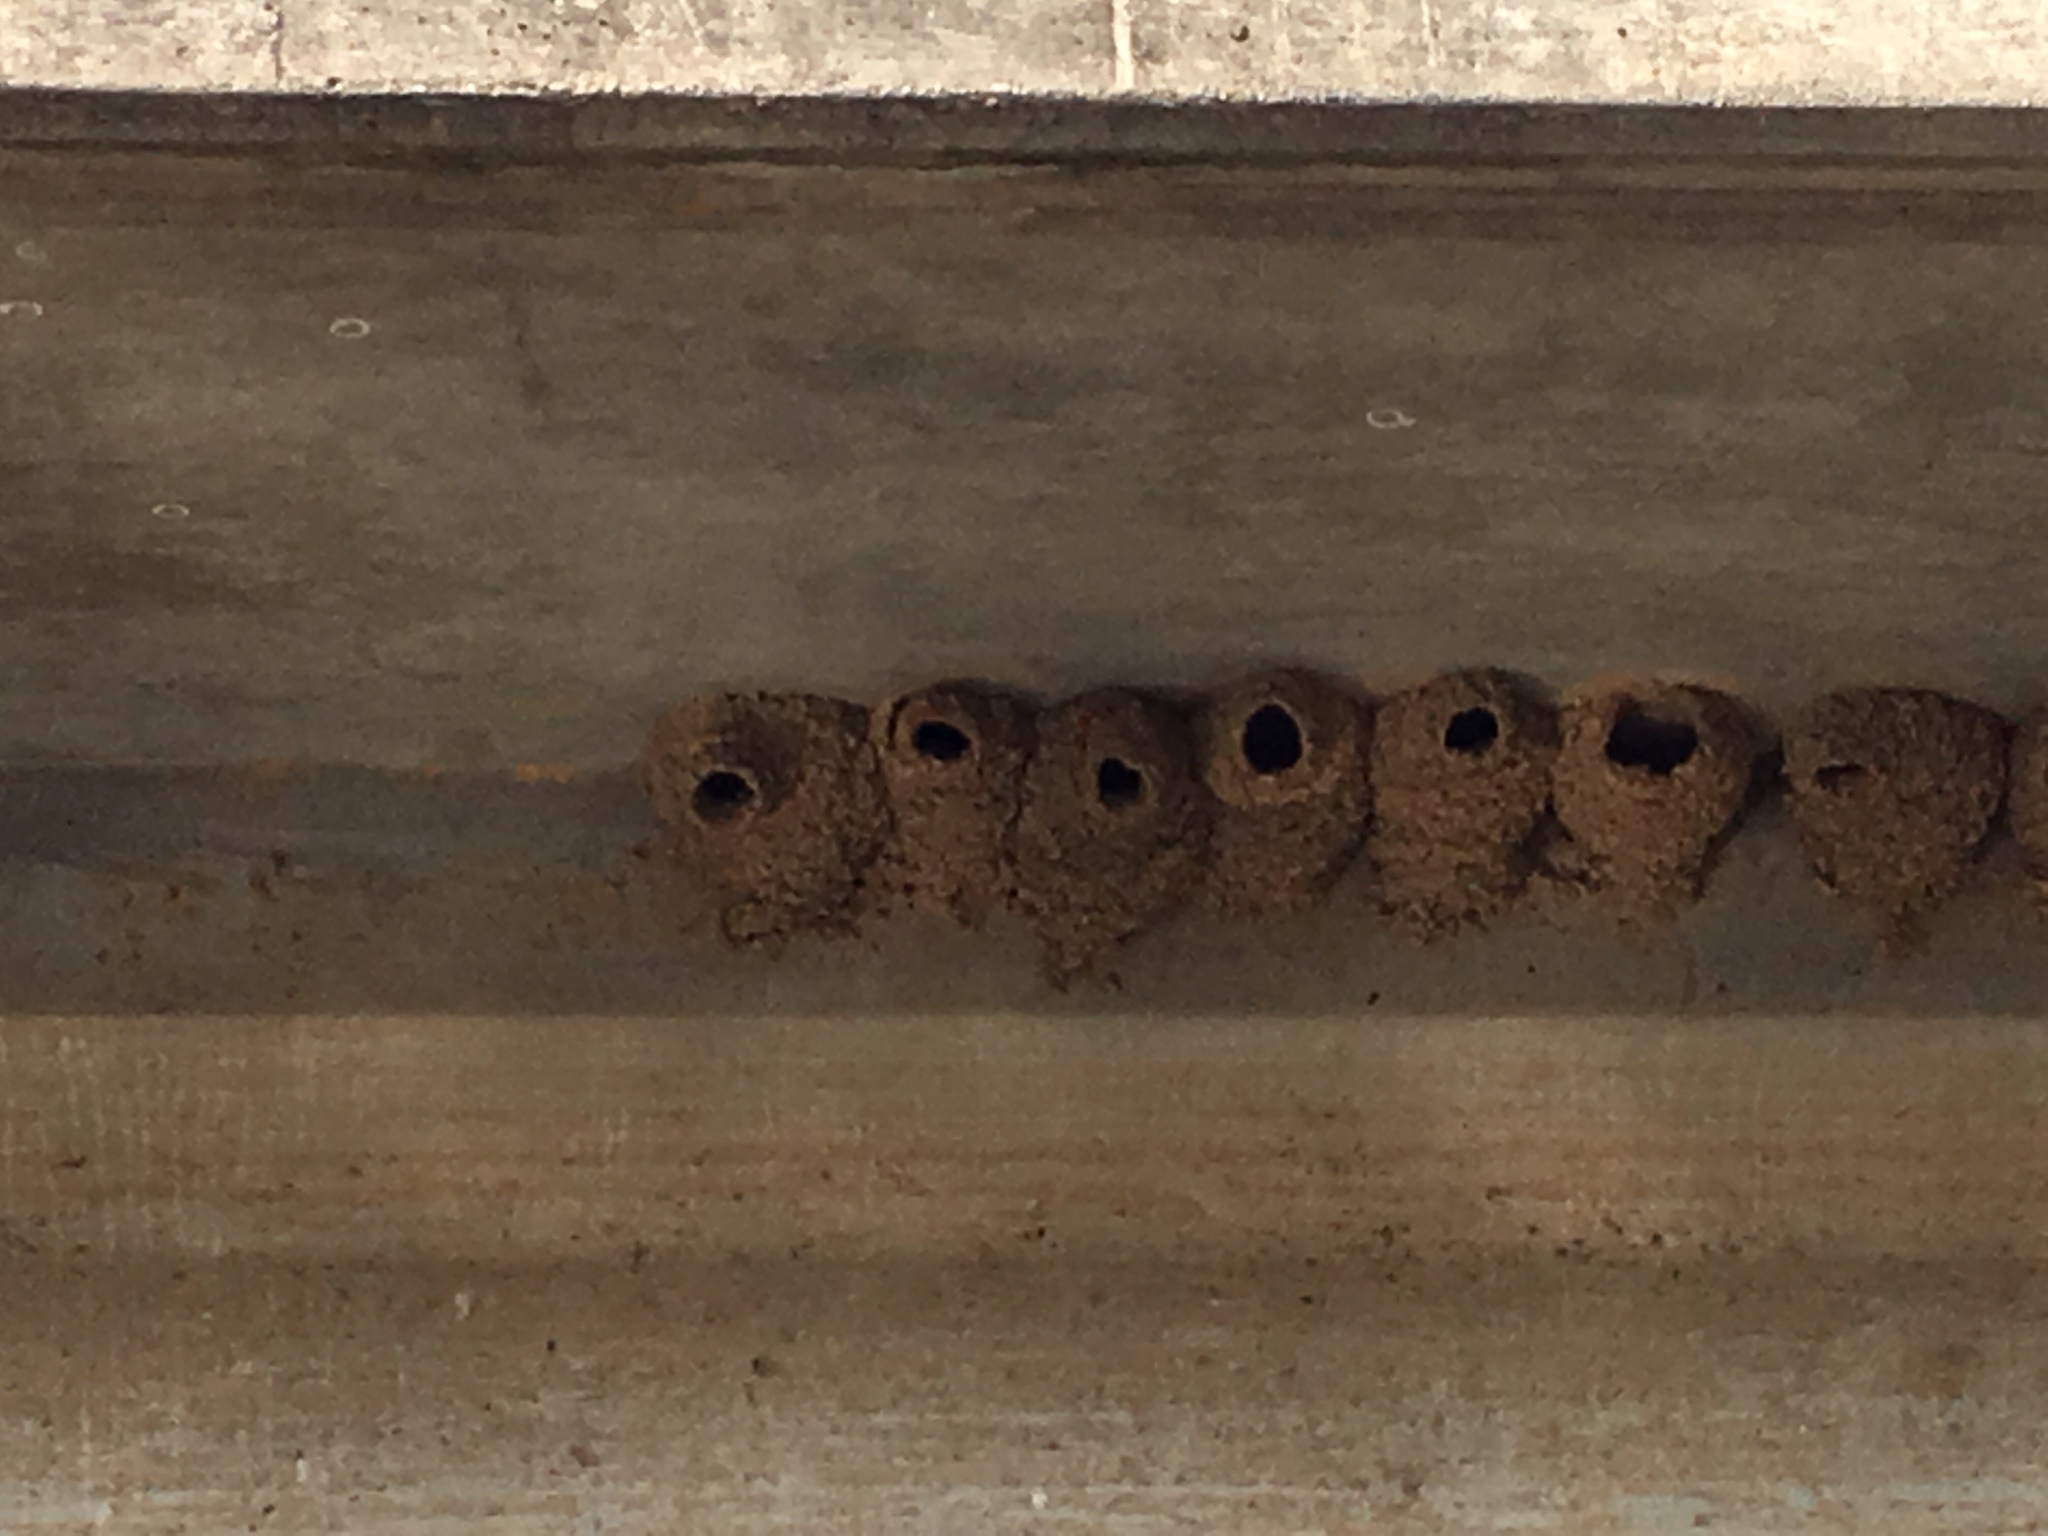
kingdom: Animalia
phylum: Chordata
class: Aves
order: Passeriformes
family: Hirundinidae
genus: Petrochelidon
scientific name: Petrochelidon pyrrhonota
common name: American cliff swallow
